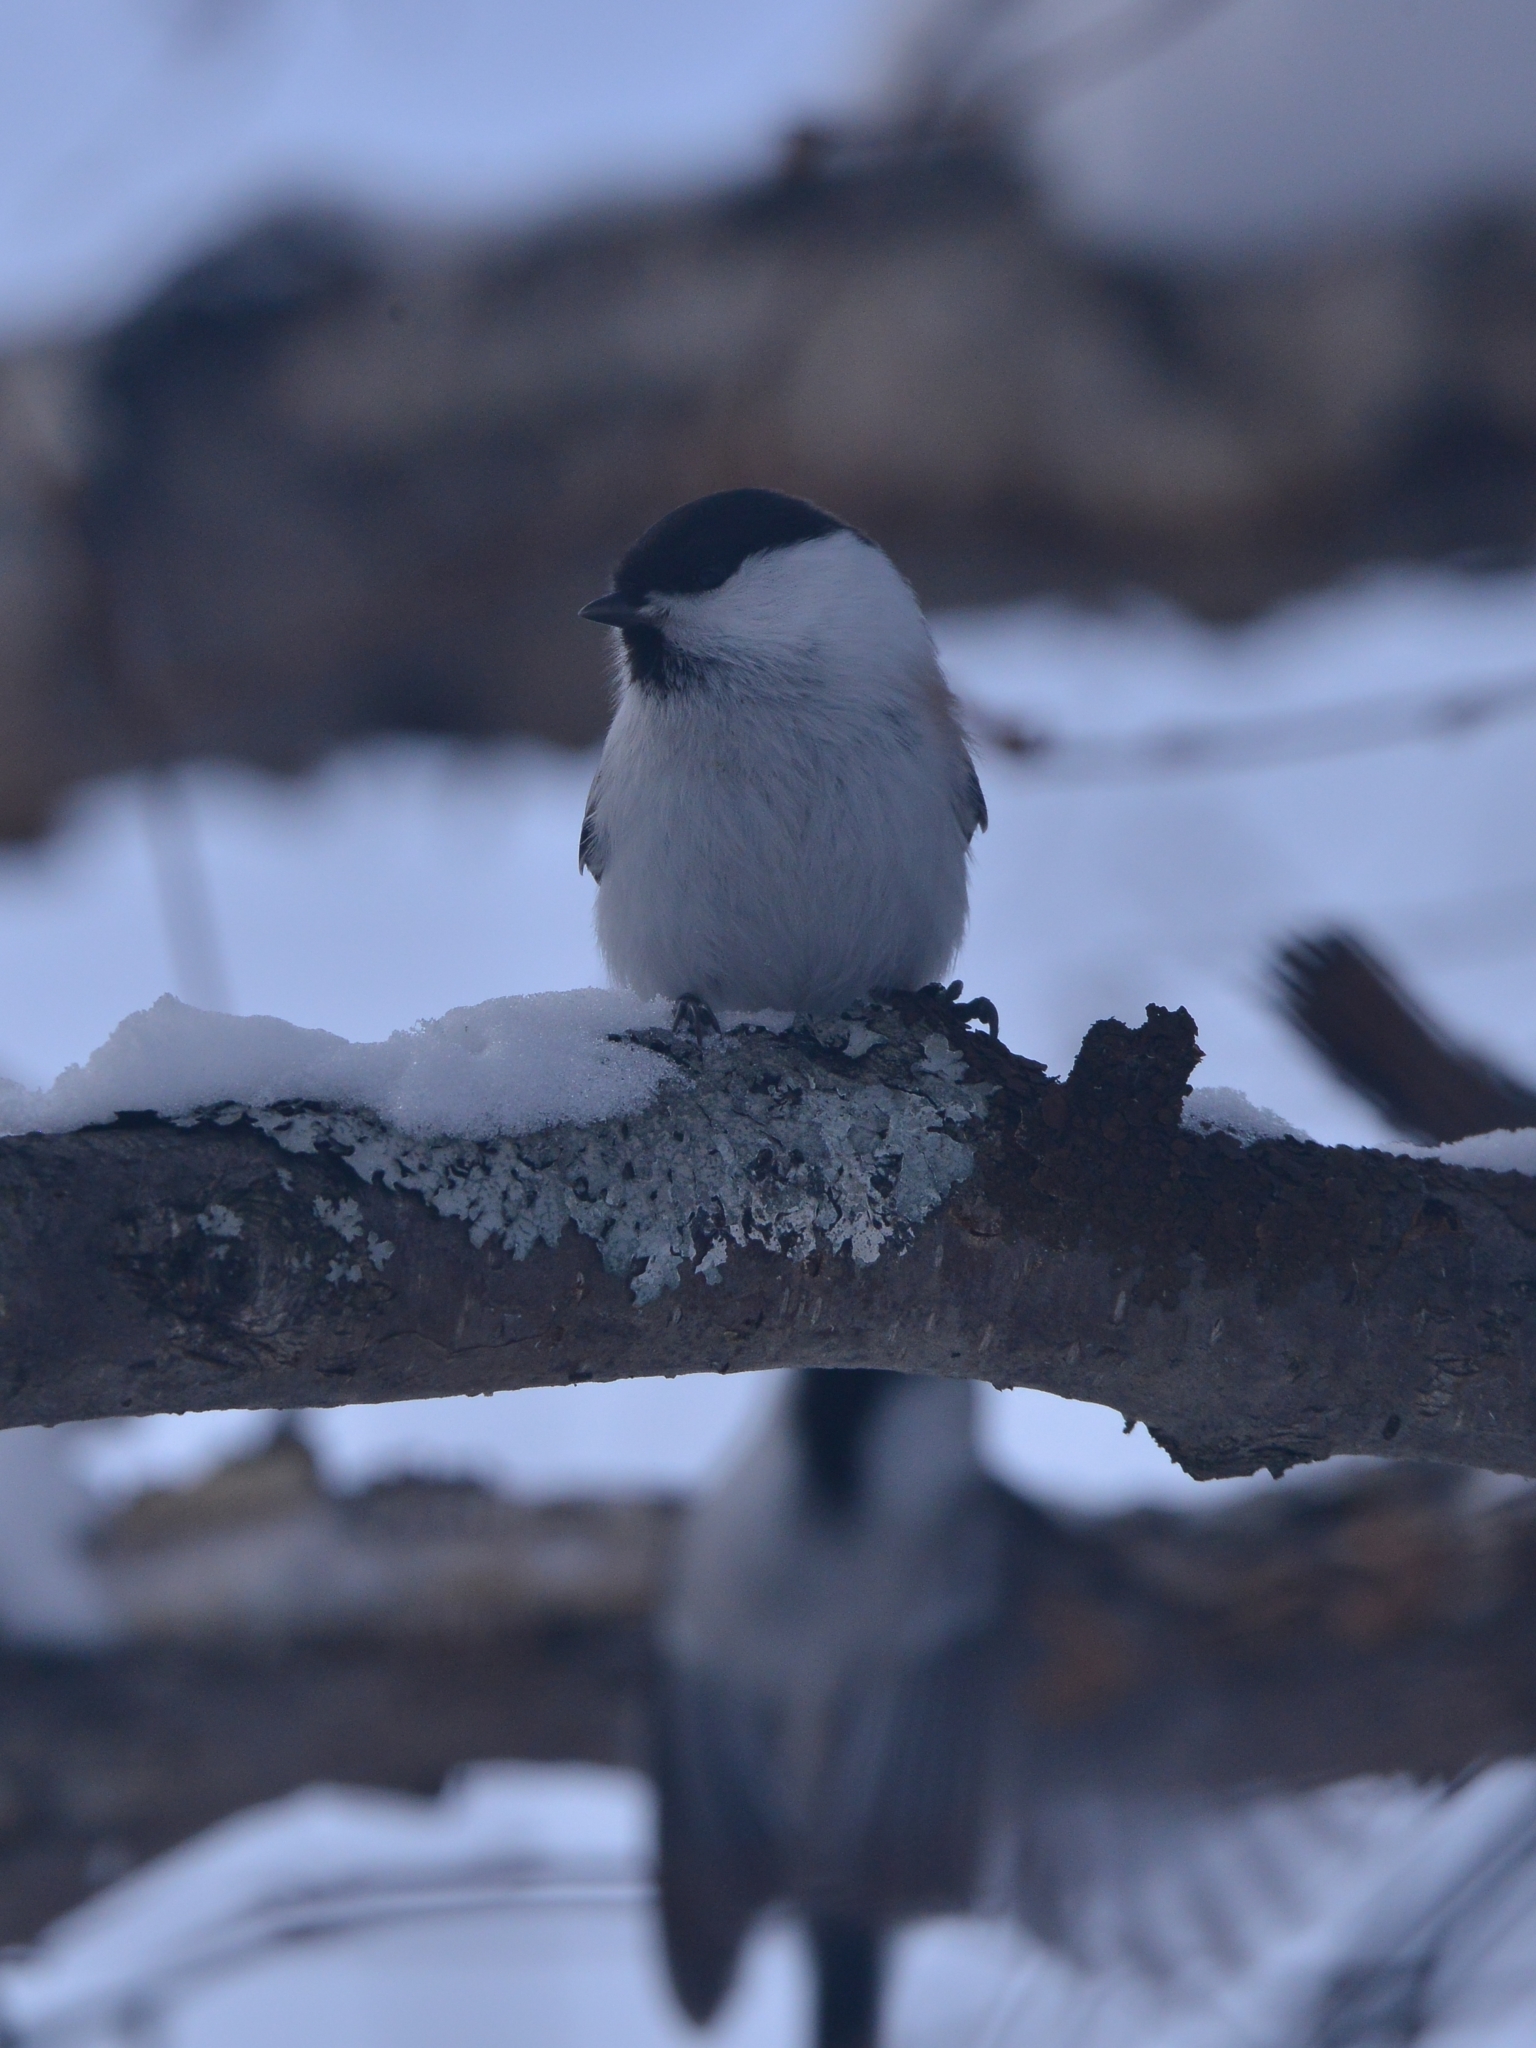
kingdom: Animalia
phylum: Chordata
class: Aves
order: Passeriformes
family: Paridae
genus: Poecile
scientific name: Poecile montanus
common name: Willow tit
